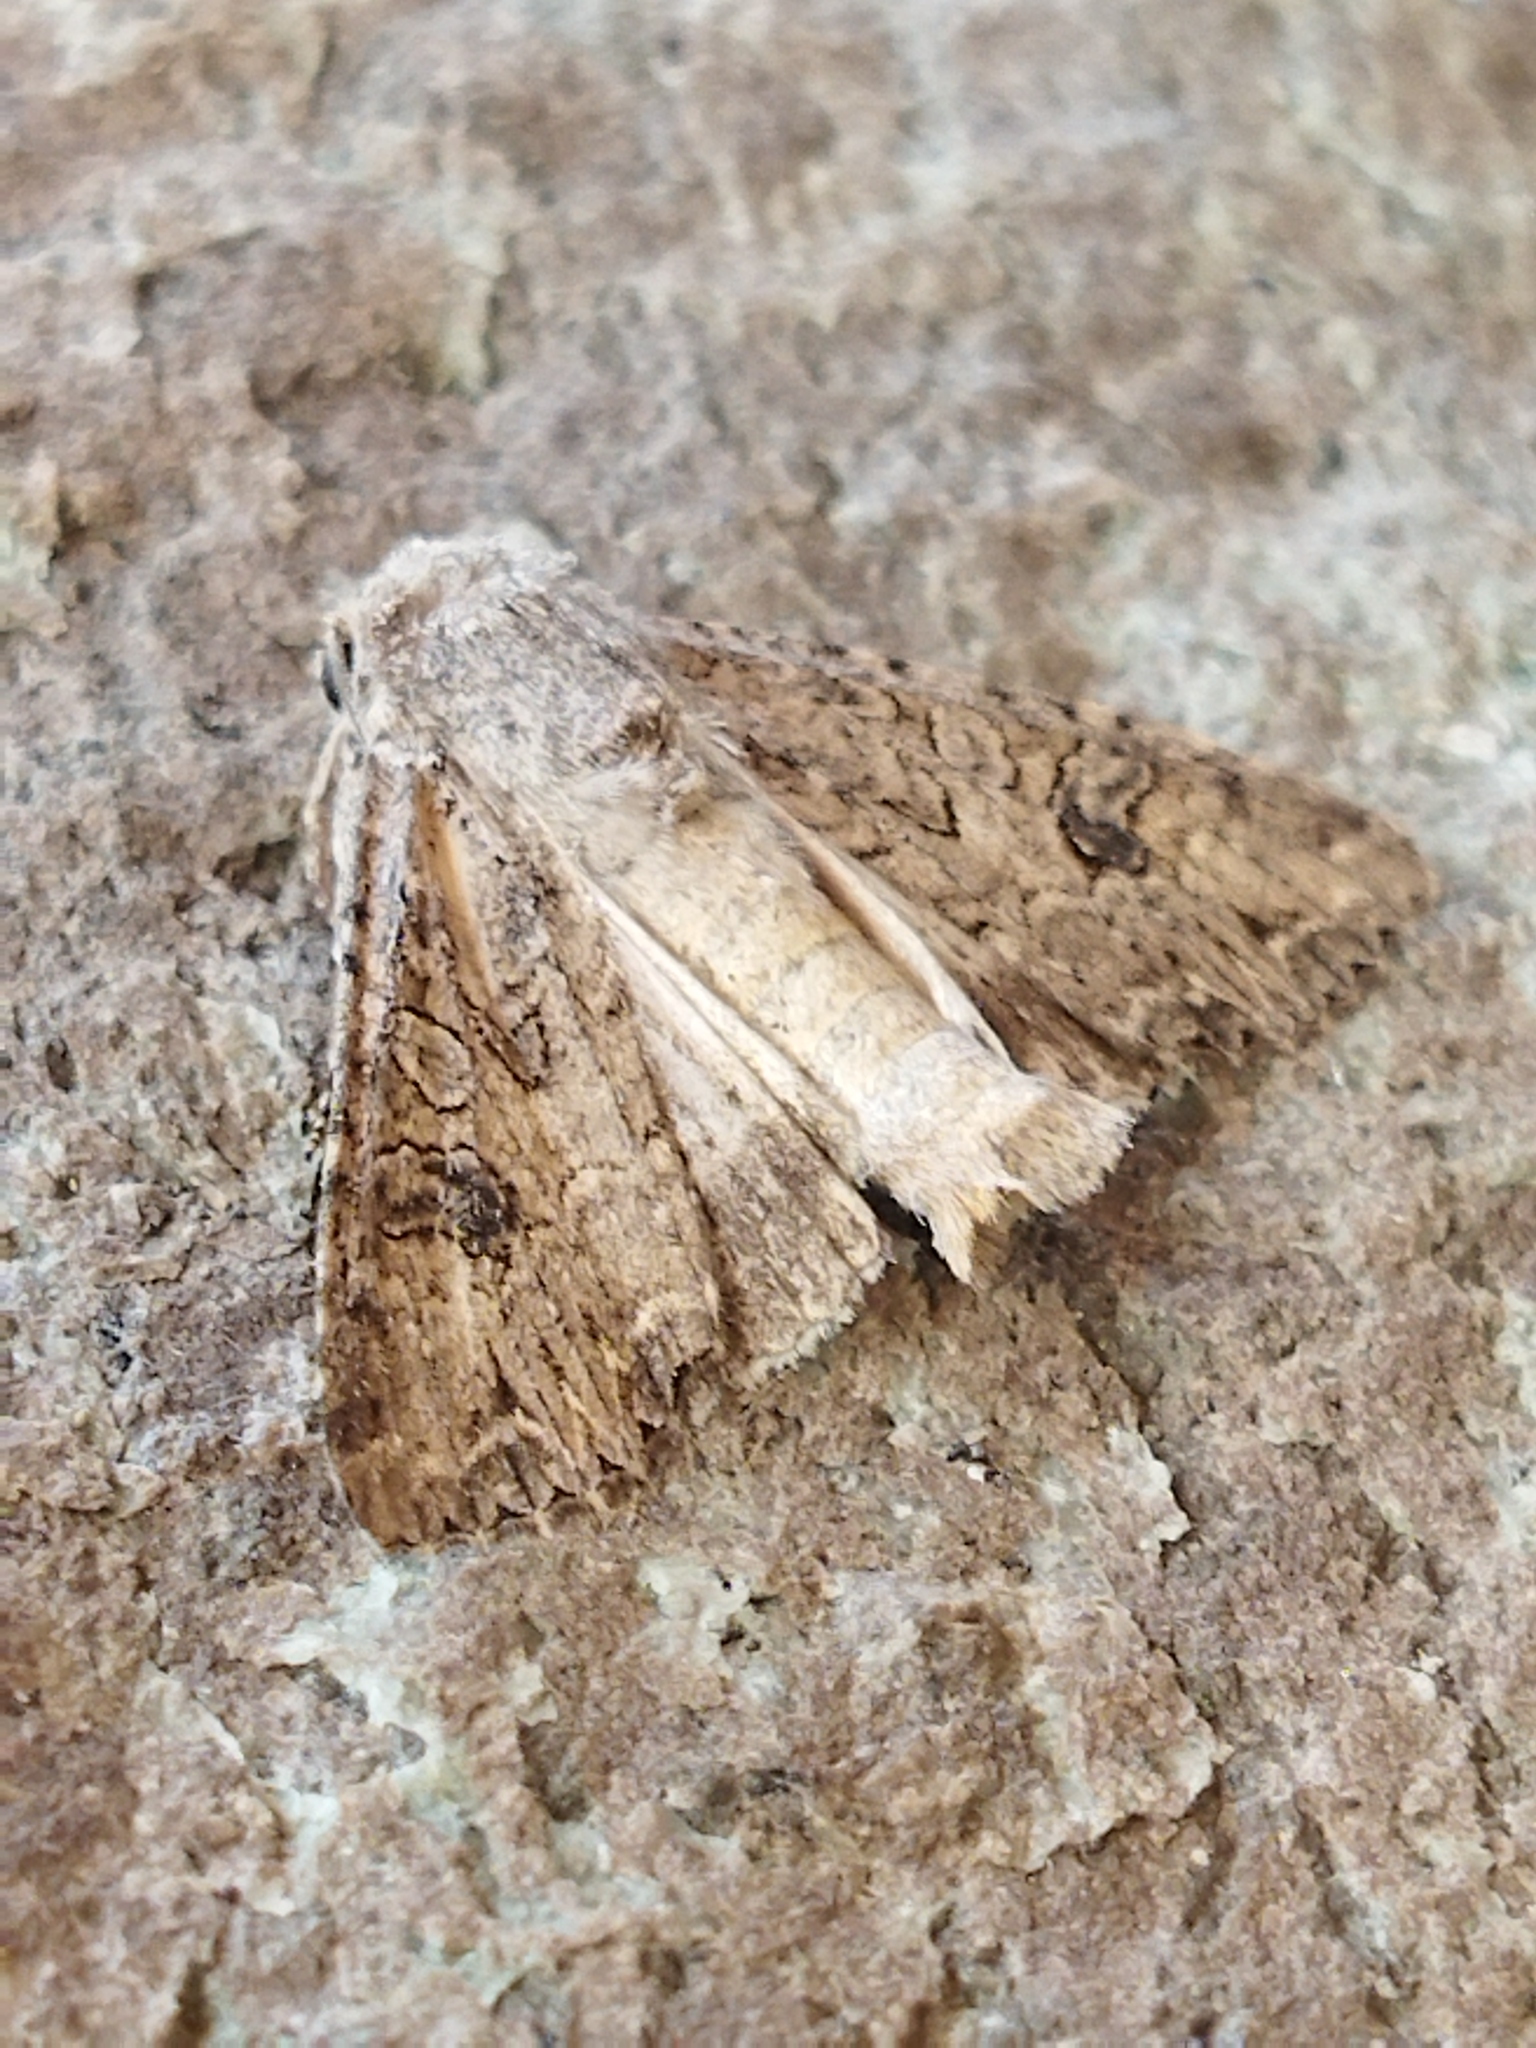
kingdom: Animalia
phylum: Arthropoda
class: Insecta
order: Lepidoptera
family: Noctuidae
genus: Anarta
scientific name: Anarta trifolii
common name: Clover cutworm moth
